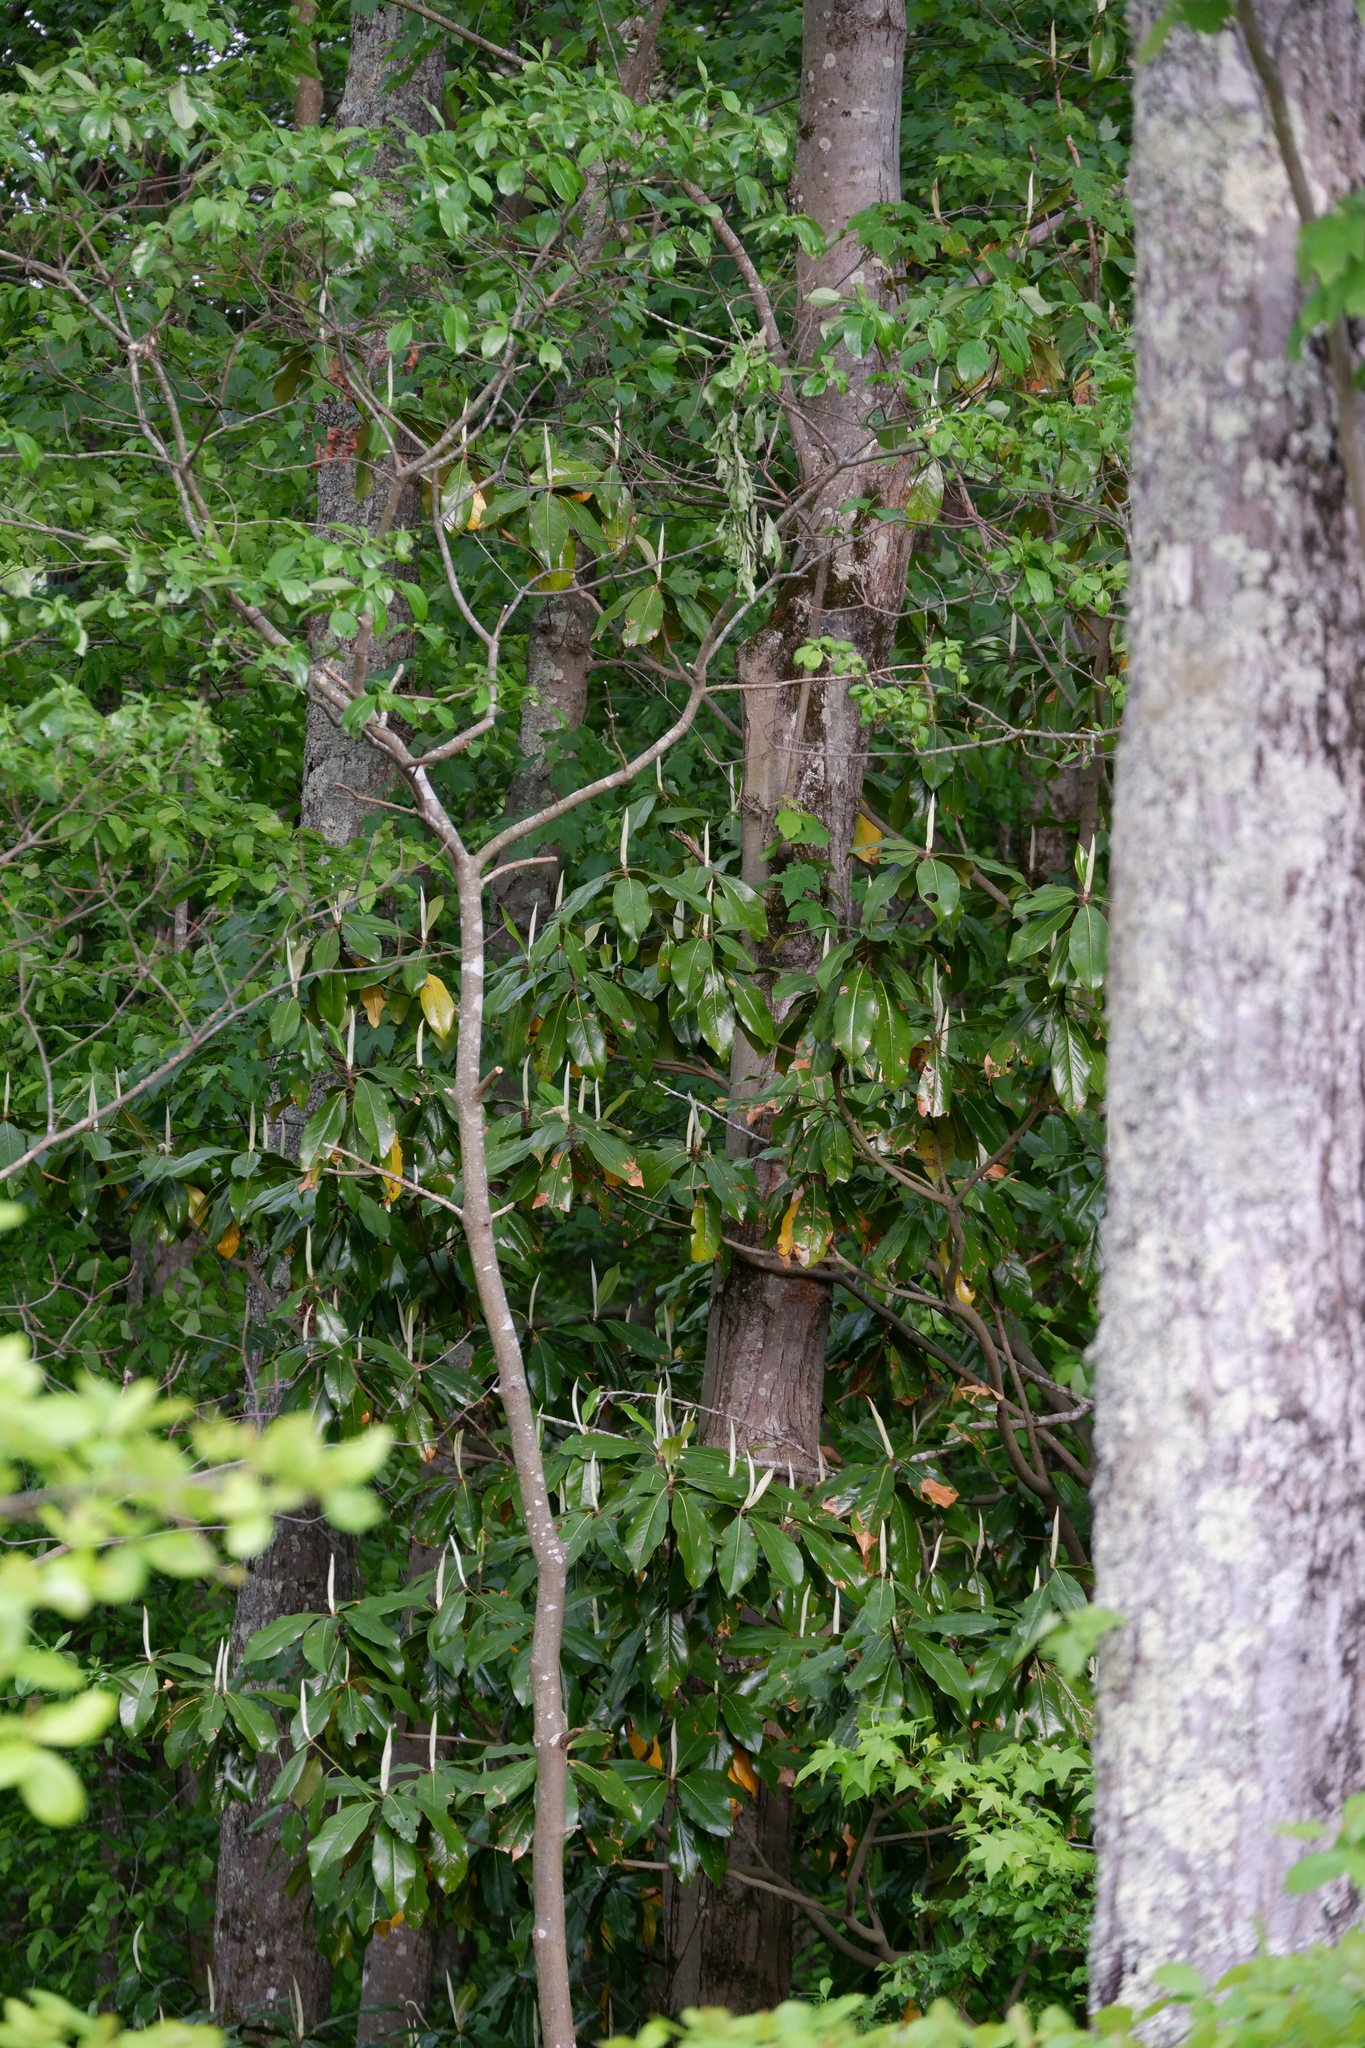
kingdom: Plantae
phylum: Tracheophyta
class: Magnoliopsida
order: Magnoliales
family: Magnoliaceae
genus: Magnolia
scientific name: Magnolia grandiflora
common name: Southern magnolia
